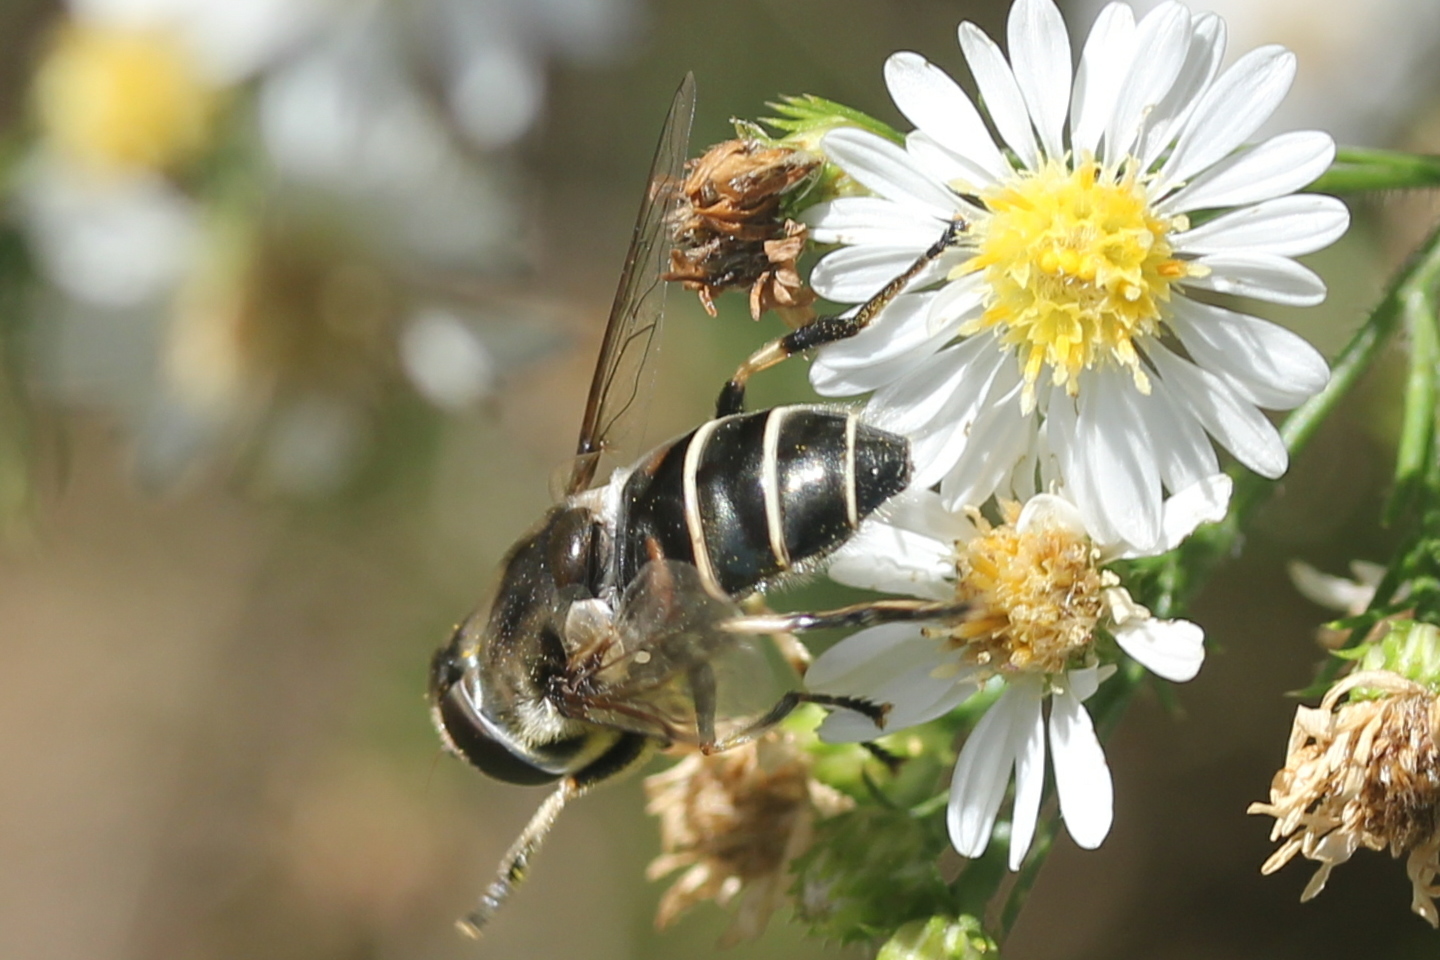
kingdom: Animalia
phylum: Arthropoda
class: Insecta
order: Diptera
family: Syrphidae
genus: Eristalis
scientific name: Eristalis dimidiata
